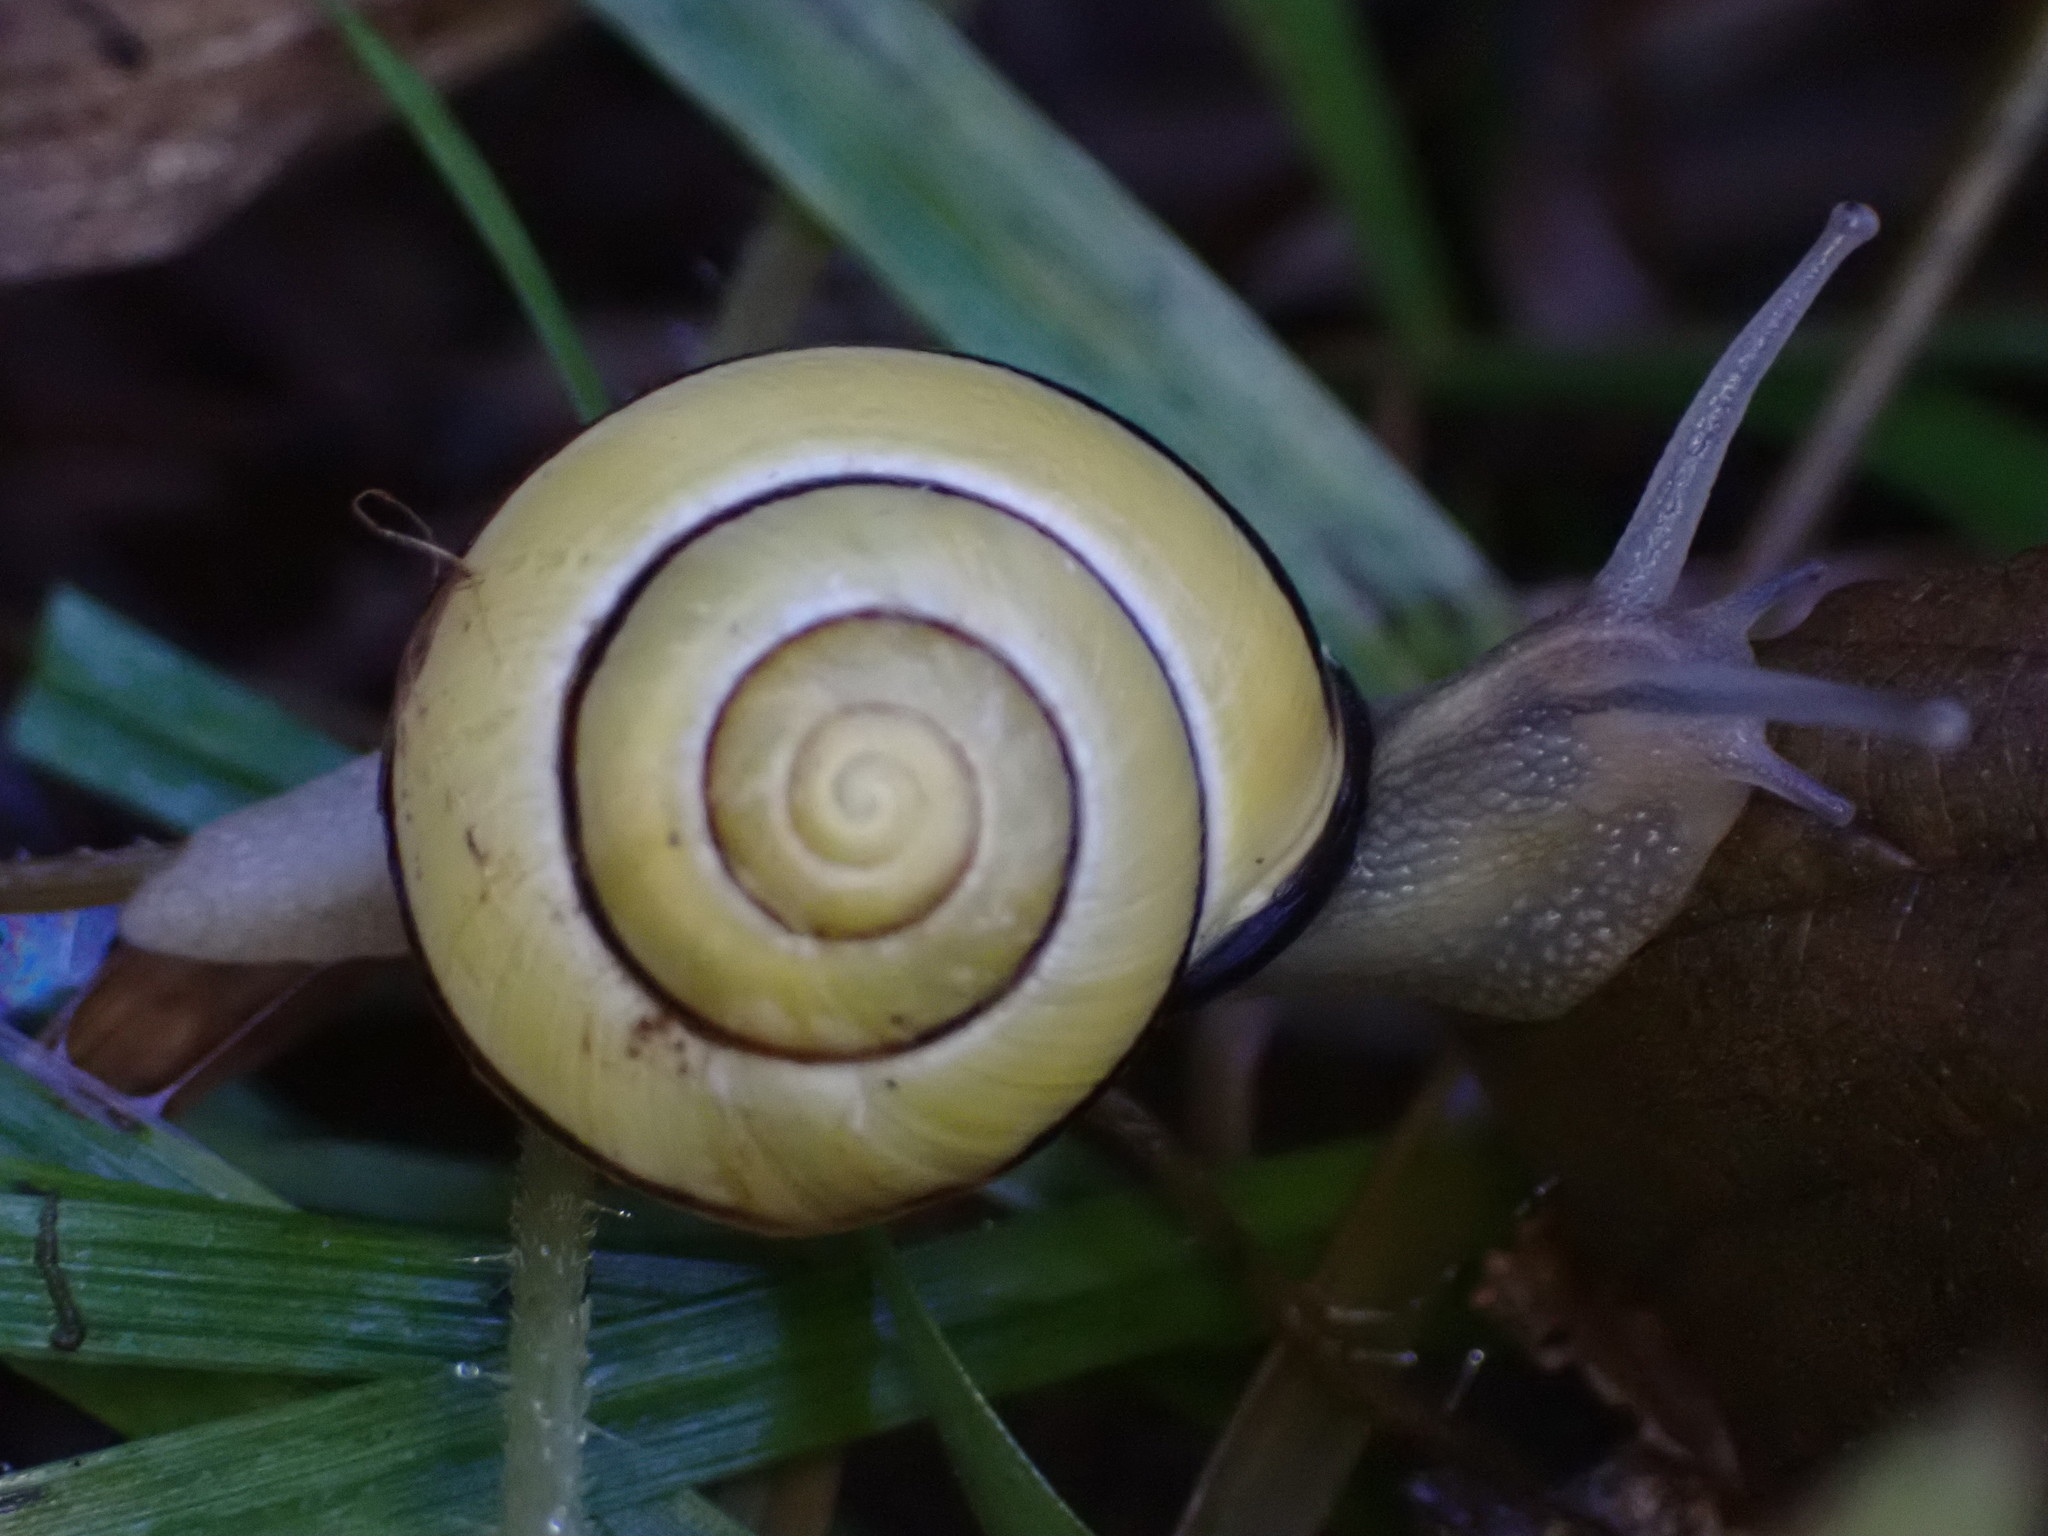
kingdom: Animalia
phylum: Mollusca
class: Gastropoda
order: Stylommatophora
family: Helicidae
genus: Cepaea
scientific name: Cepaea nemoralis
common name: Grovesnail
